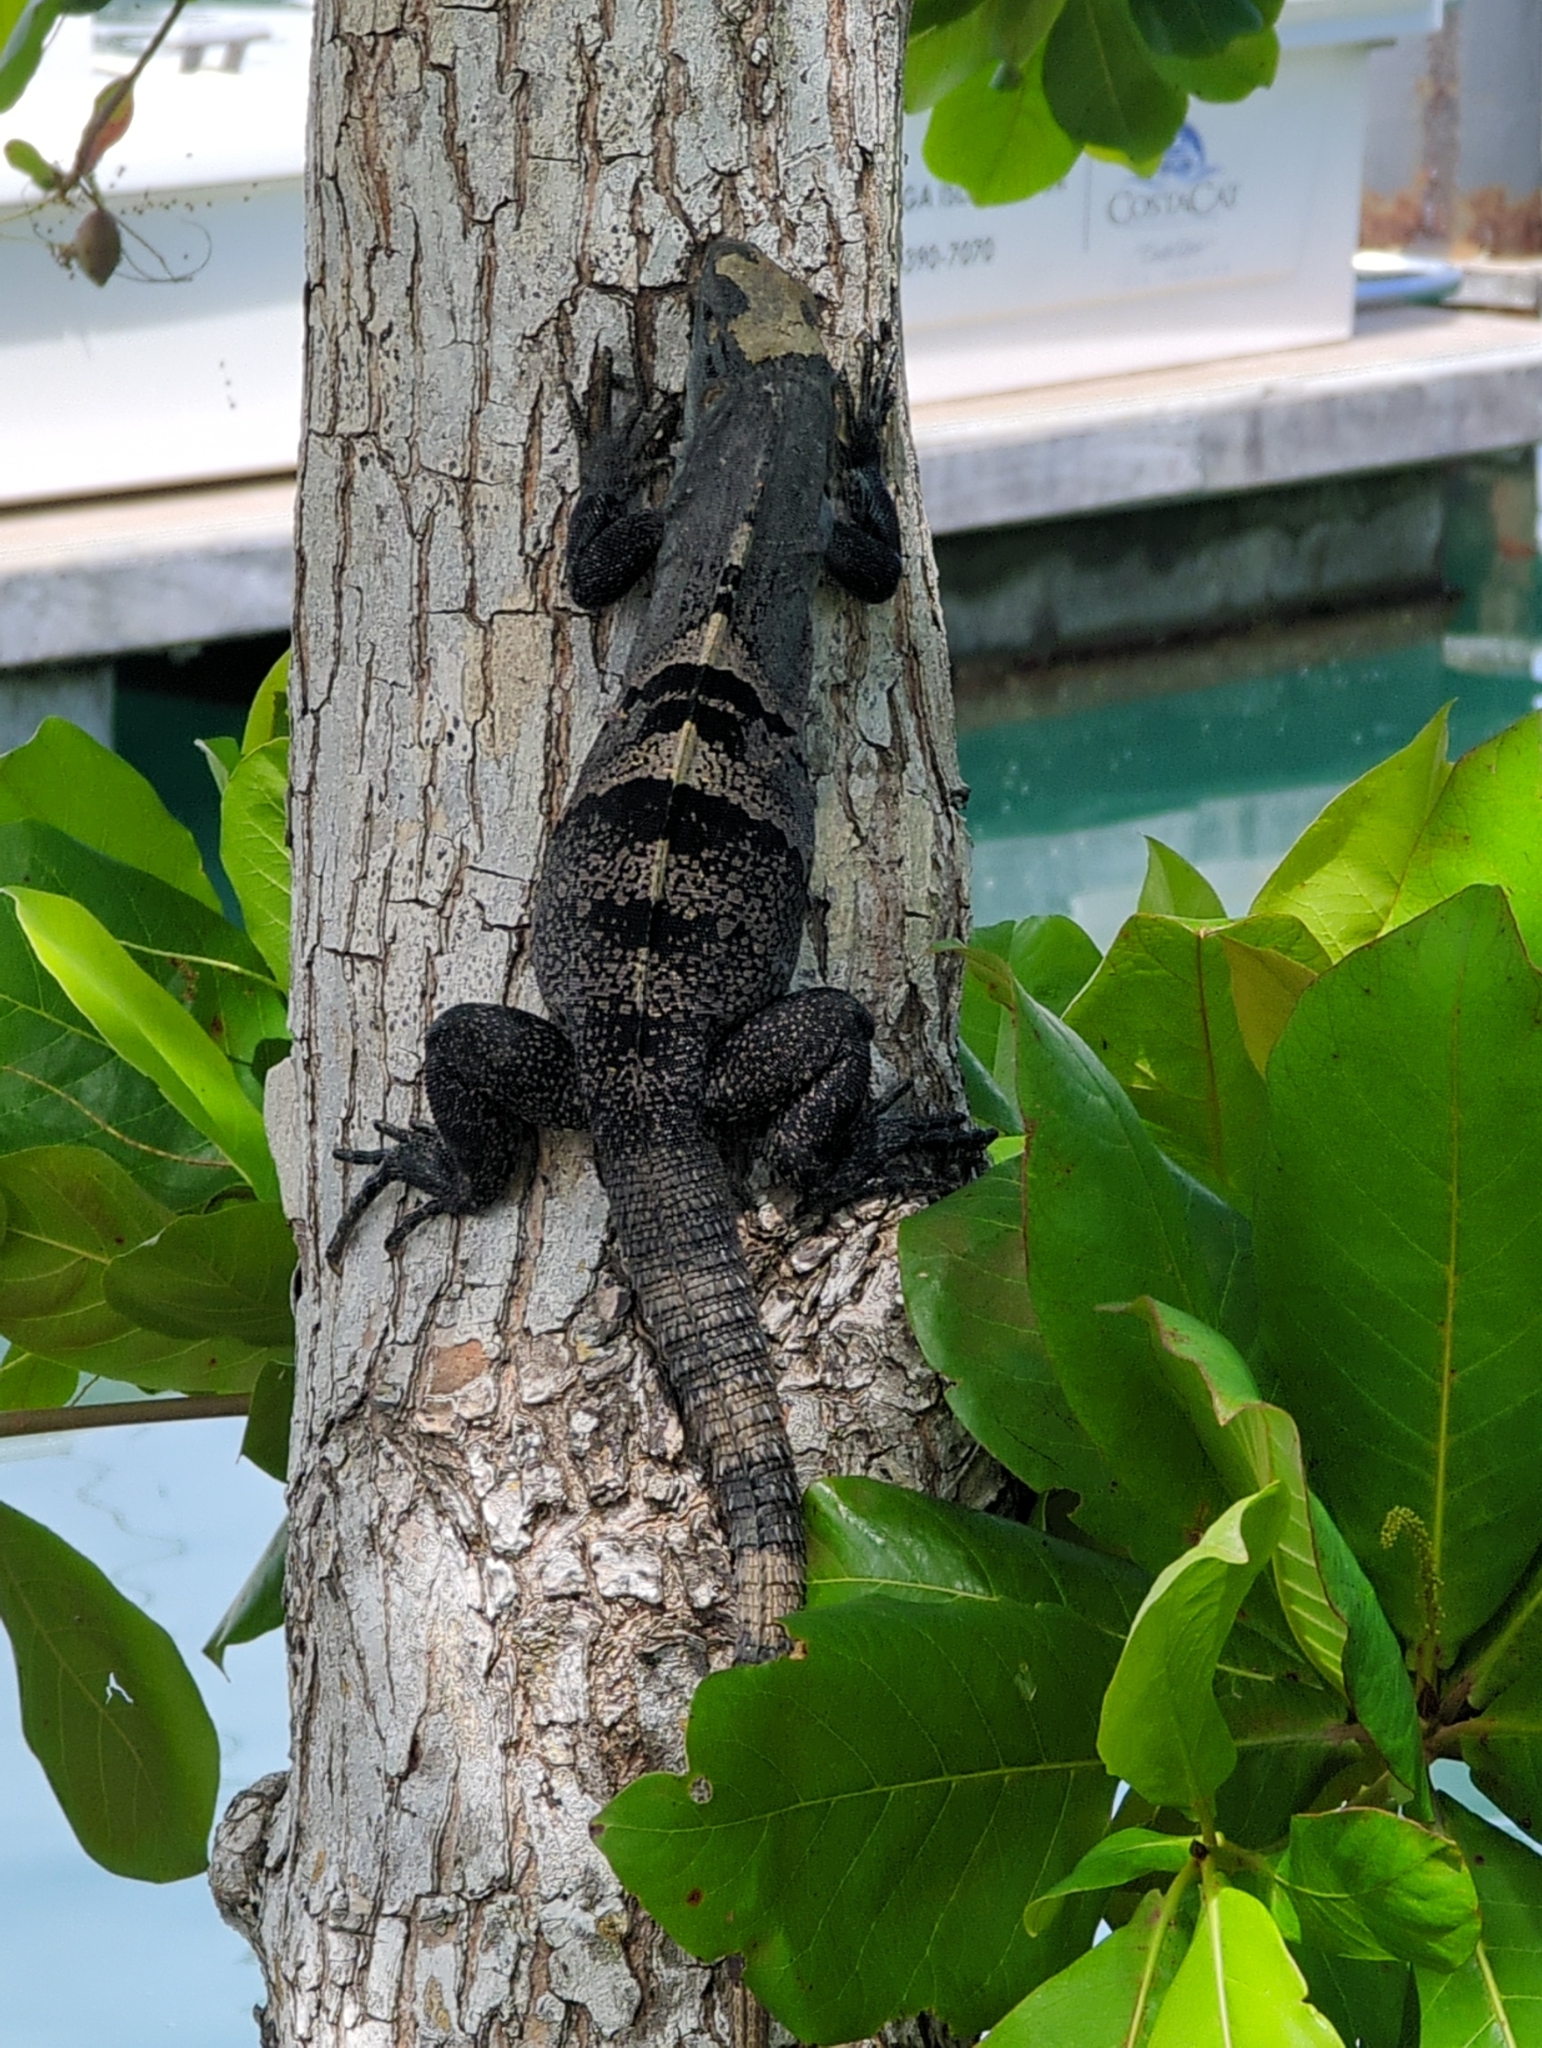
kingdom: Animalia
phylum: Chordata
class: Squamata
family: Iguanidae
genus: Ctenosaura
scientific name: Ctenosaura similis
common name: Black spiny-tailed iguana
